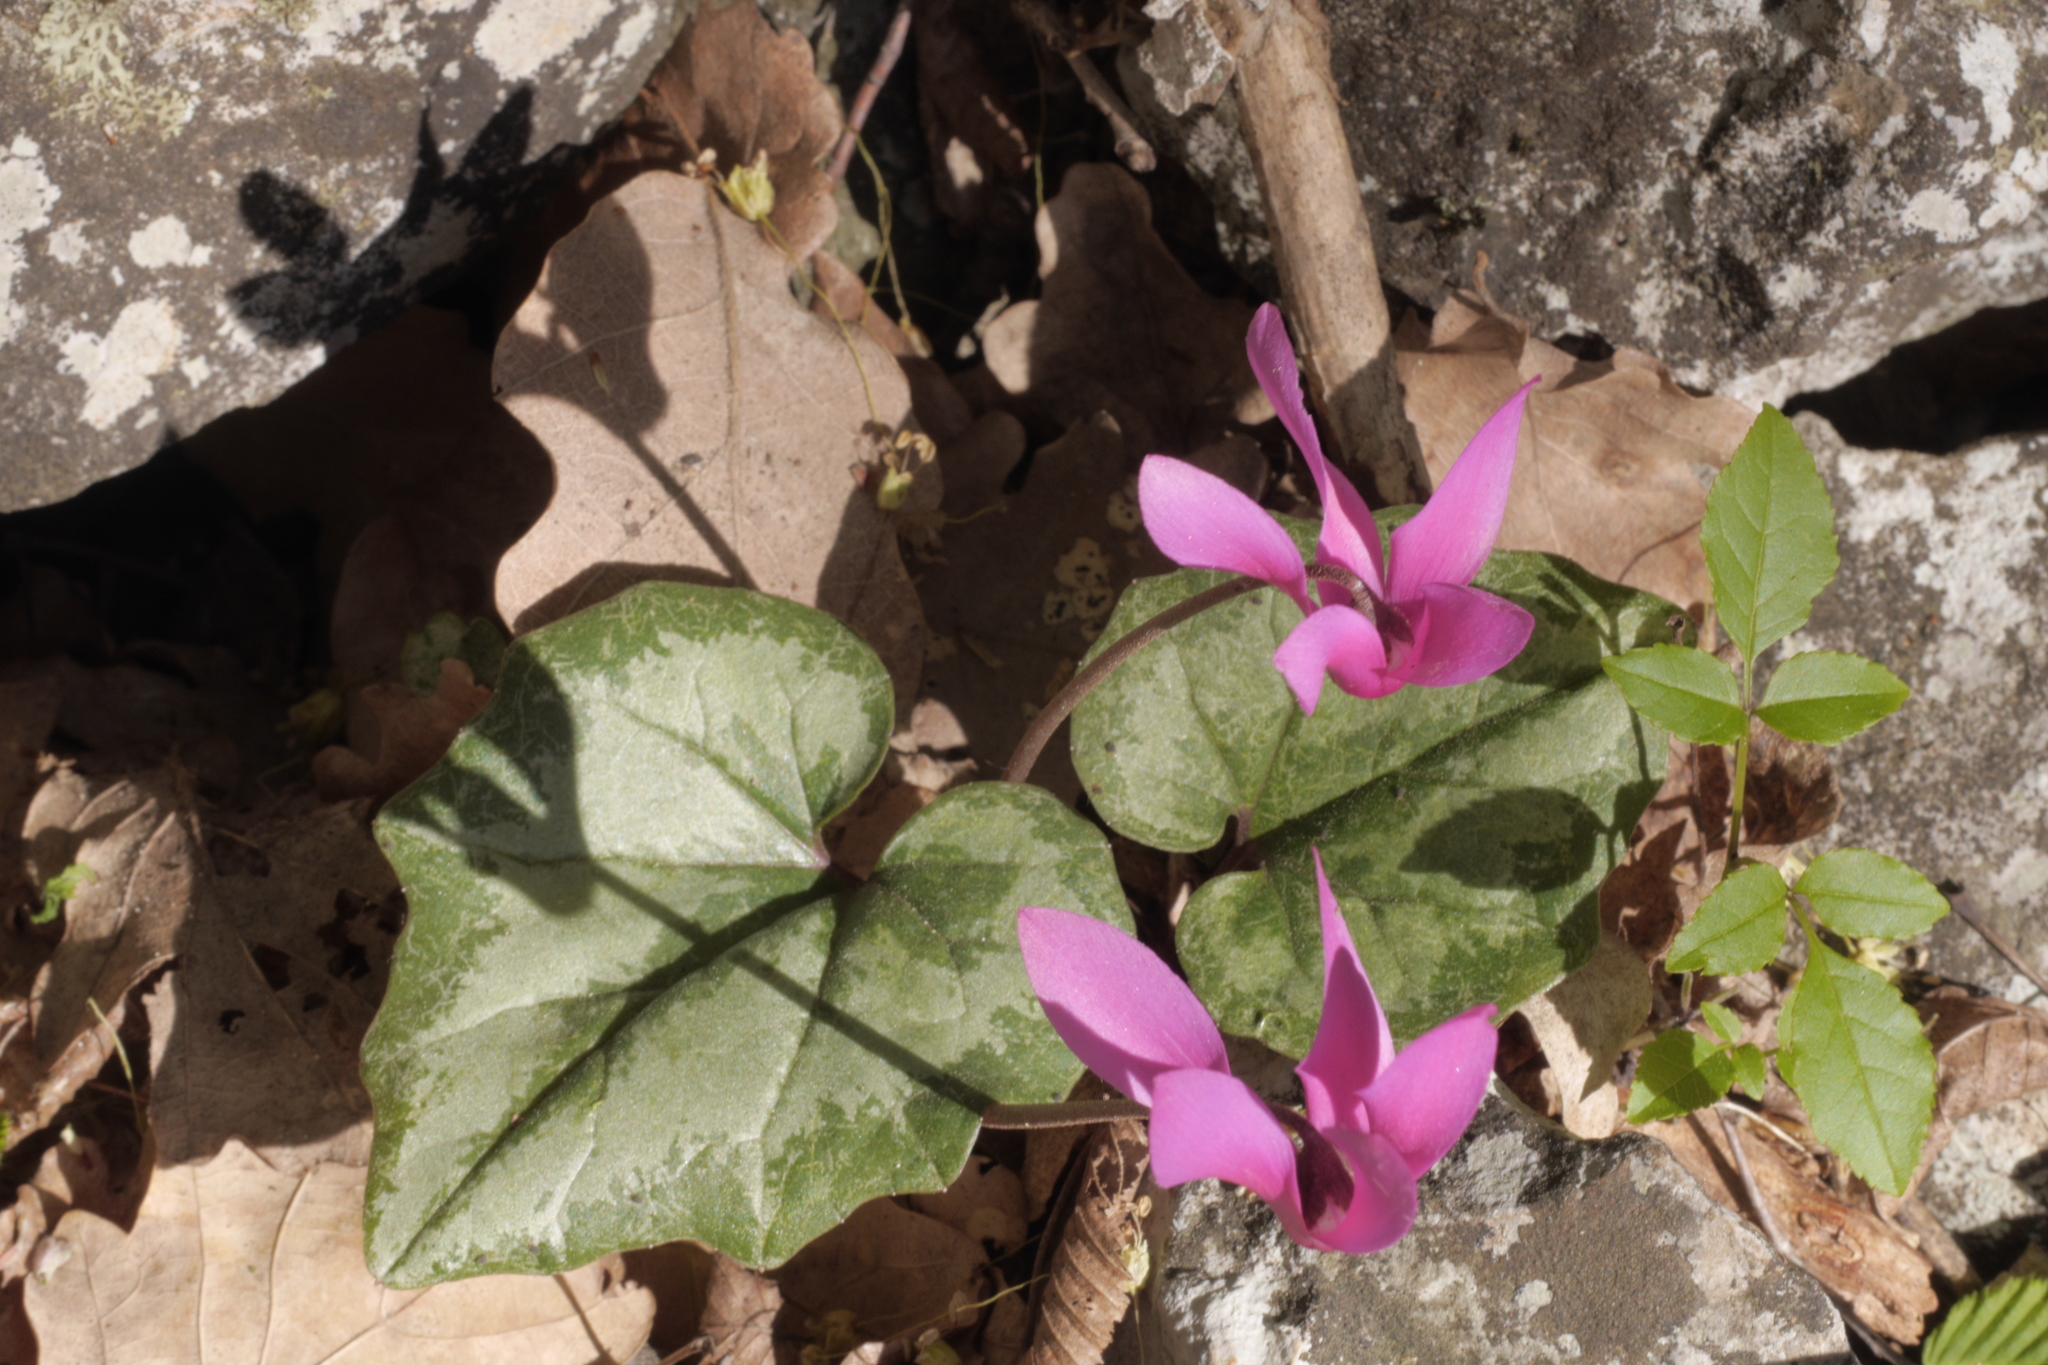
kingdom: Plantae
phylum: Tracheophyta
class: Magnoliopsida
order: Ericales
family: Primulaceae
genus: Cyclamen
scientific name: Cyclamen repandum
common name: Spring sowbread
